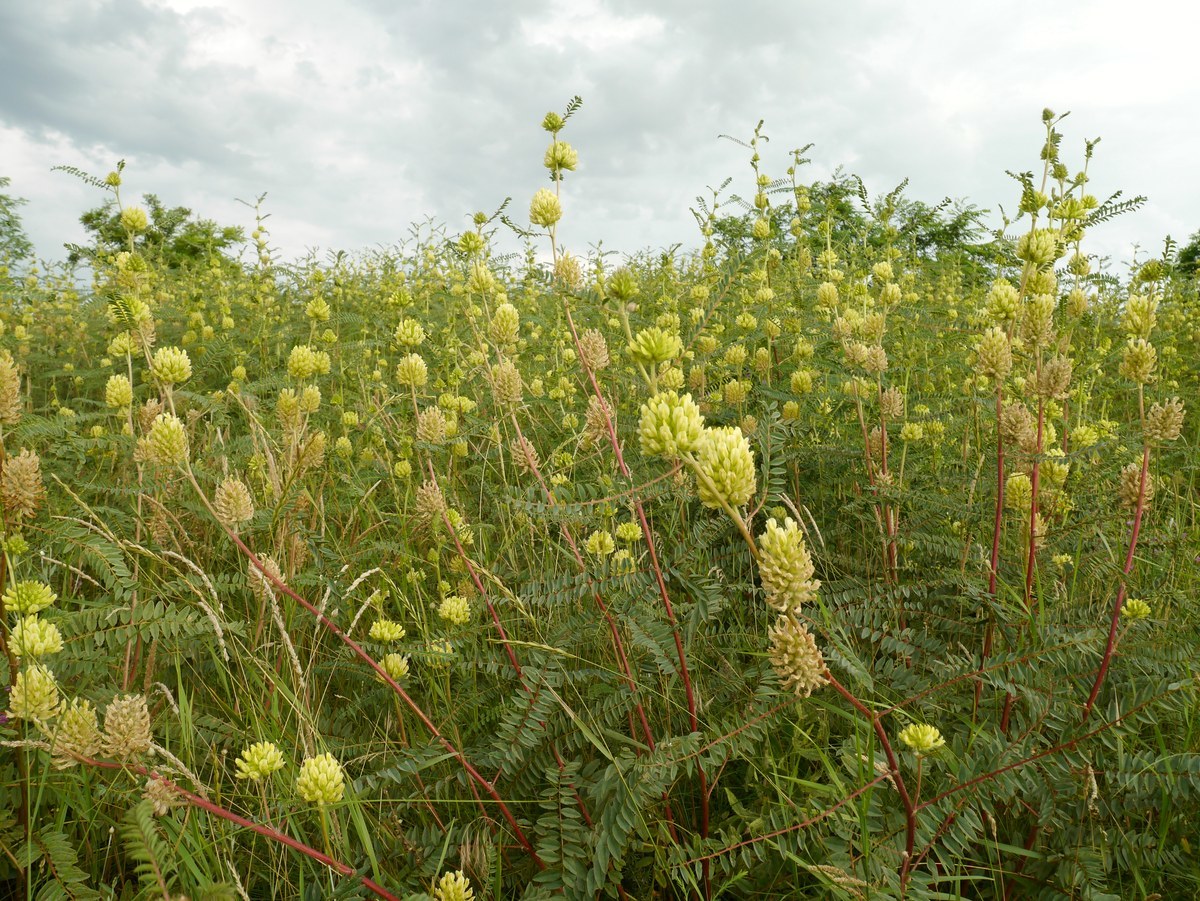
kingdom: Plantae
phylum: Tracheophyta
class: Magnoliopsida
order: Fabales
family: Fabaceae
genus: Astragalus
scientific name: Astragalus ponticus
